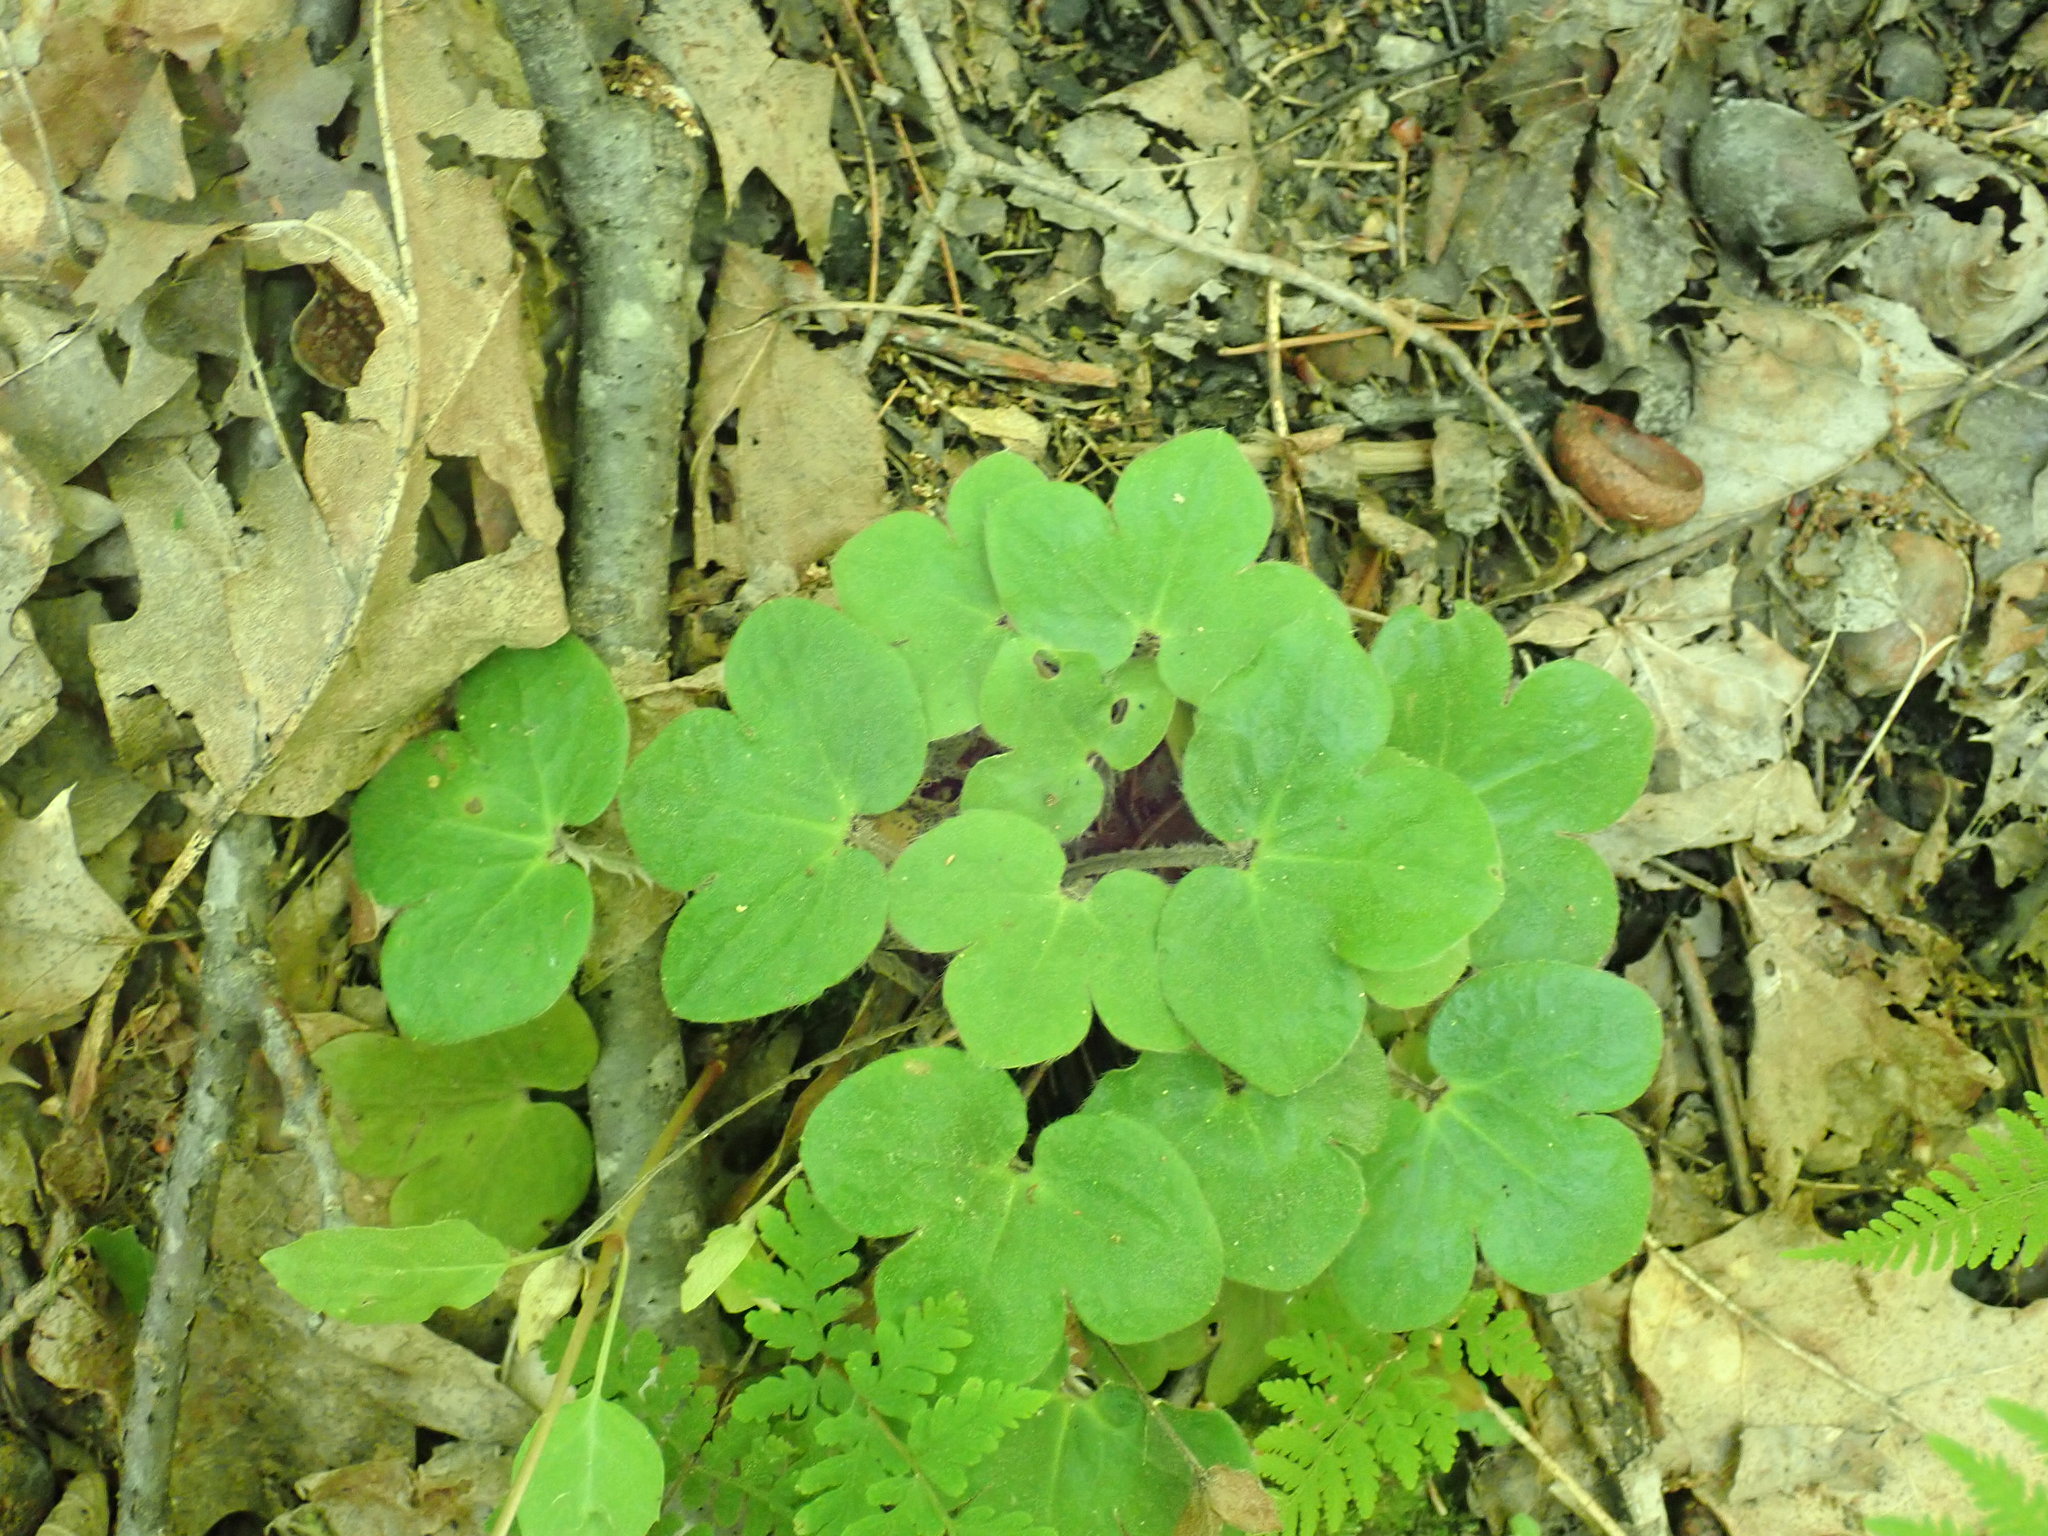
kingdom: Plantae
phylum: Tracheophyta
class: Magnoliopsida
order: Ranunculales
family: Ranunculaceae
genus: Hepatica
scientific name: Hepatica americana
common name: American hepatica
